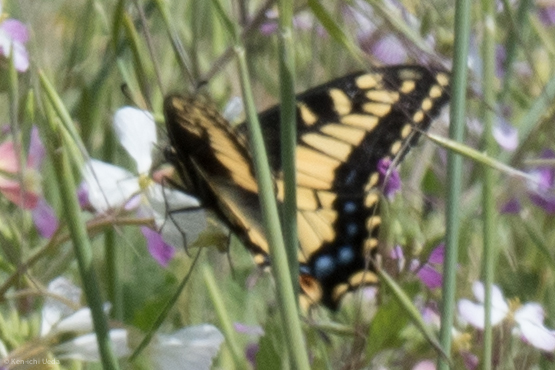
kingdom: Animalia
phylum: Arthropoda
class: Insecta
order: Lepidoptera
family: Papilionidae
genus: Papilio
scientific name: Papilio zelicaon
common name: Anise swallowtail
